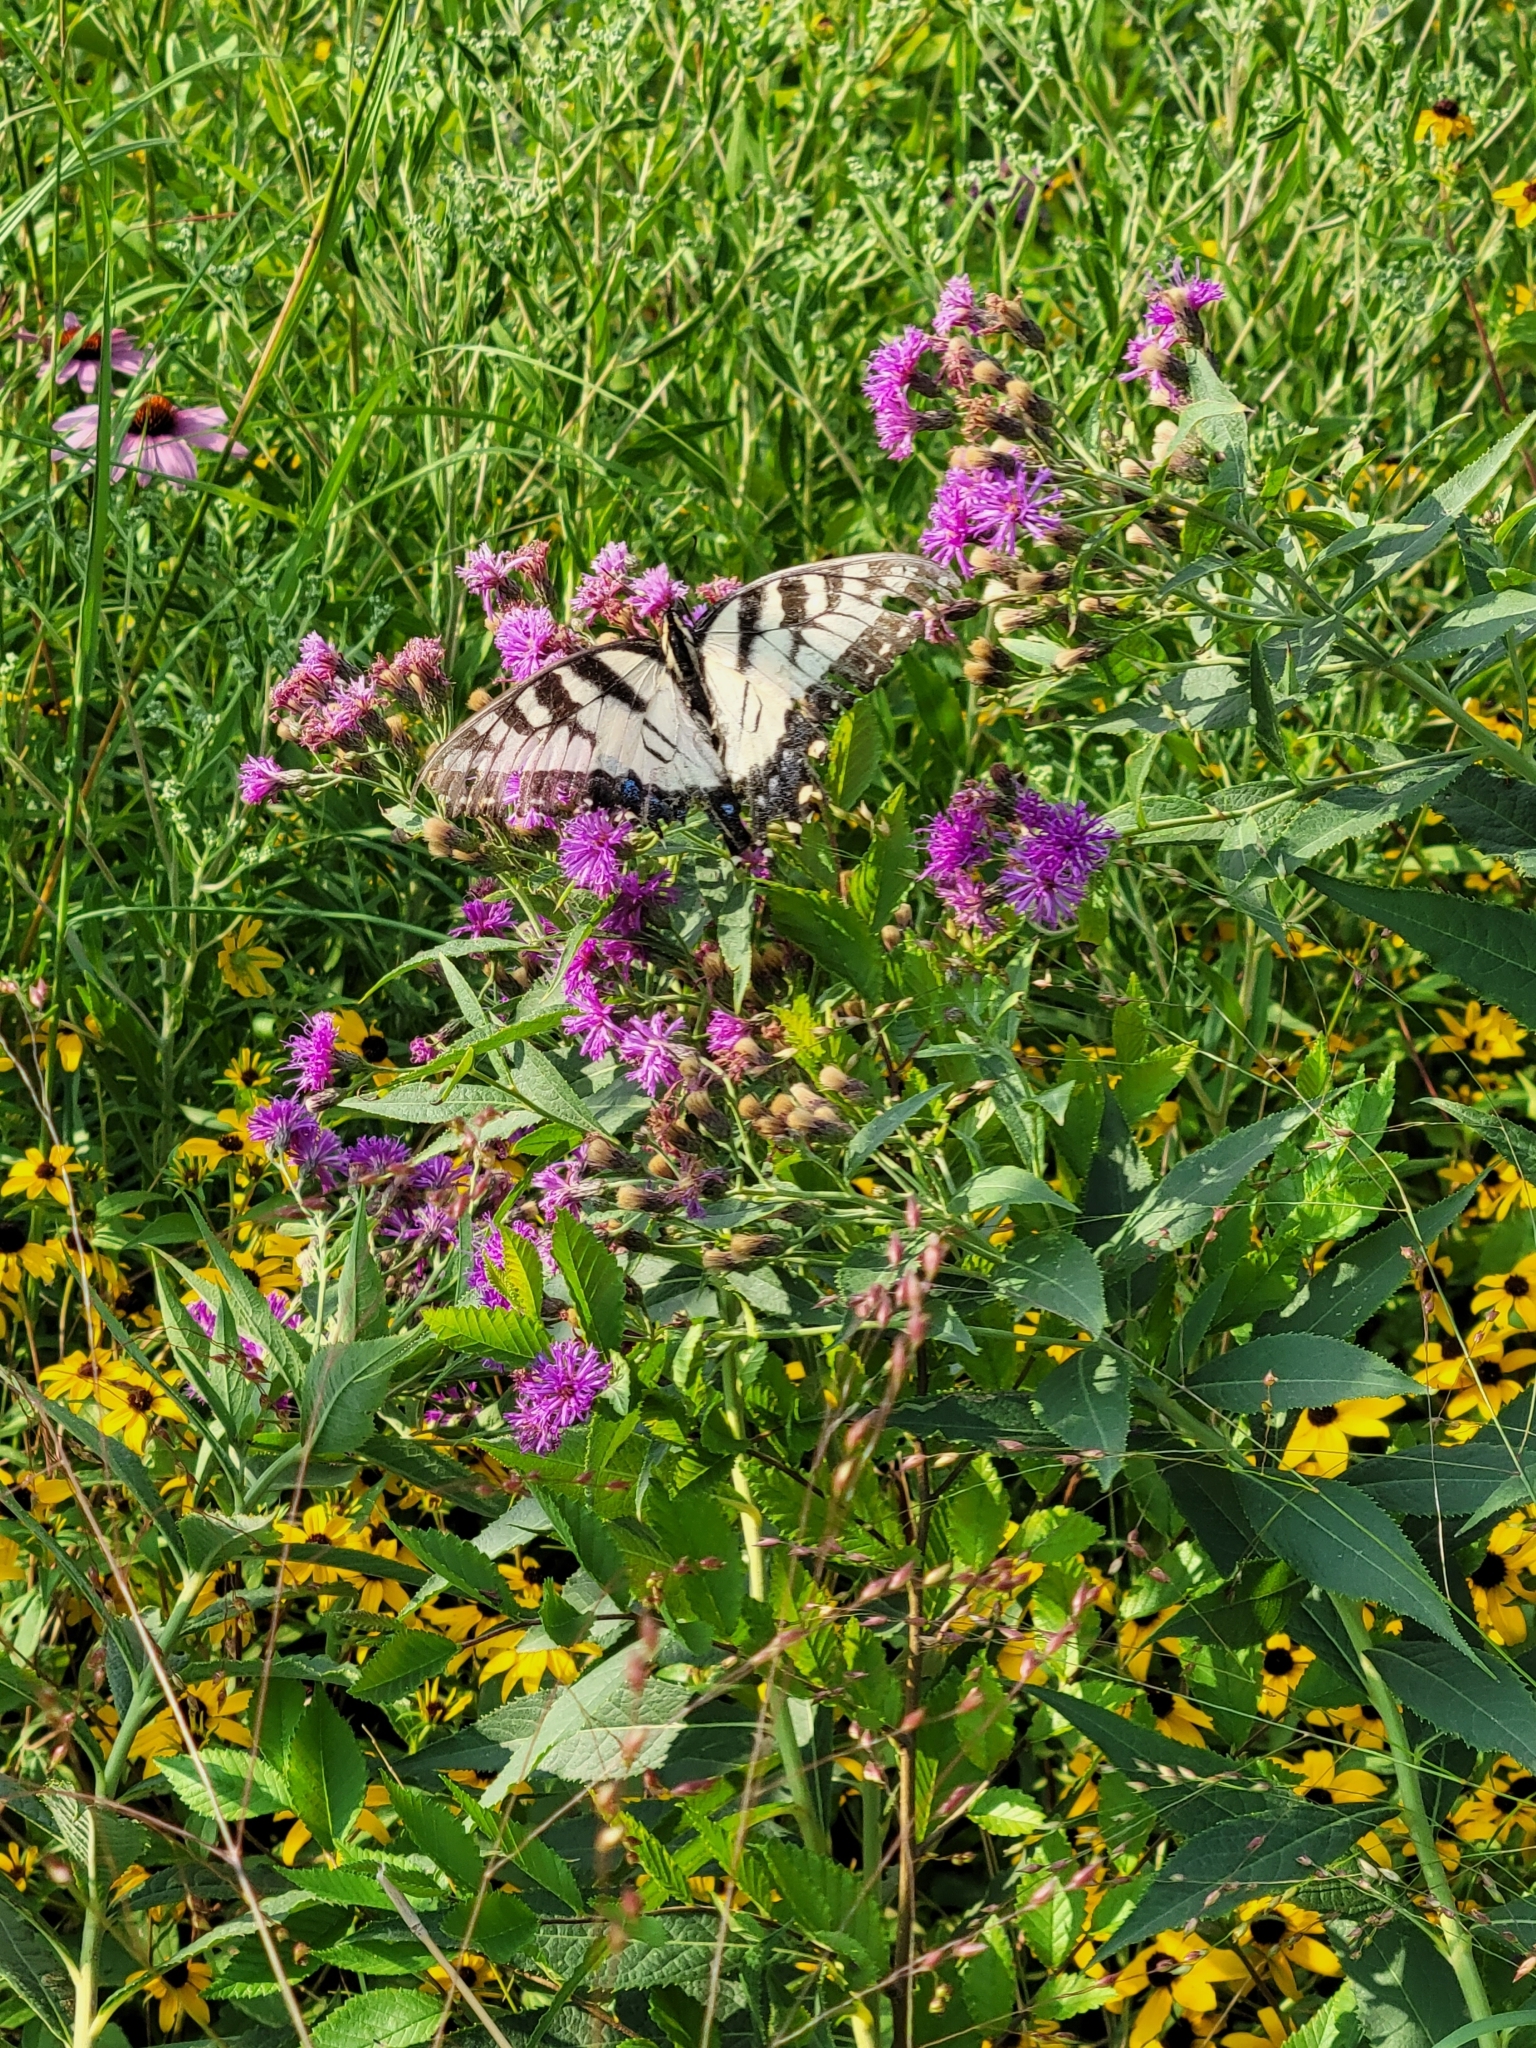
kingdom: Animalia
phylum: Arthropoda
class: Insecta
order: Lepidoptera
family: Papilionidae
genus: Papilio
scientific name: Papilio glaucus
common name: Tiger swallowtail
